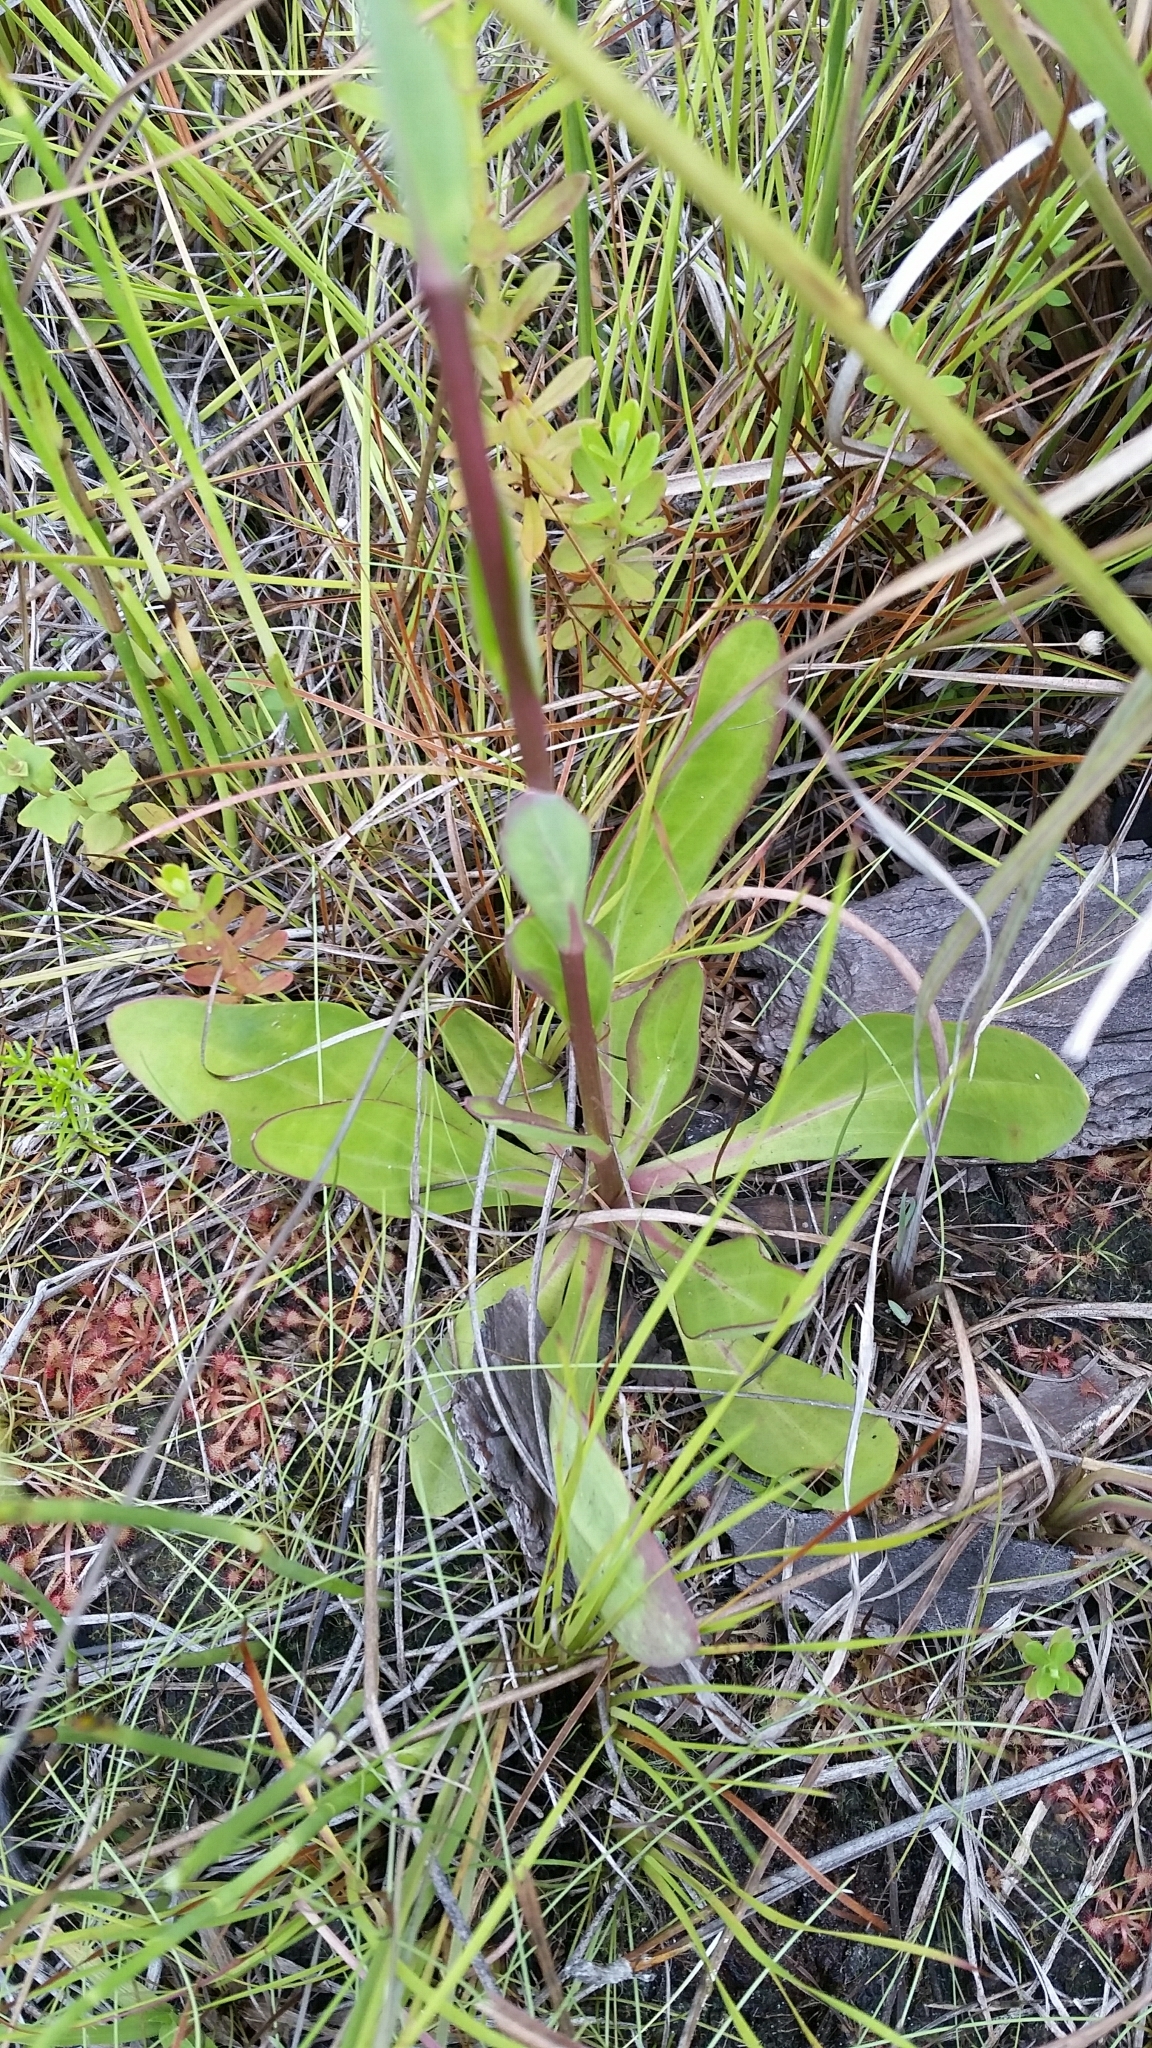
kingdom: Plantae
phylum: Tracheophyta
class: Magnoliopsida
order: Asterales
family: Asteraceae
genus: Carphephorus
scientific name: Carphephorus
